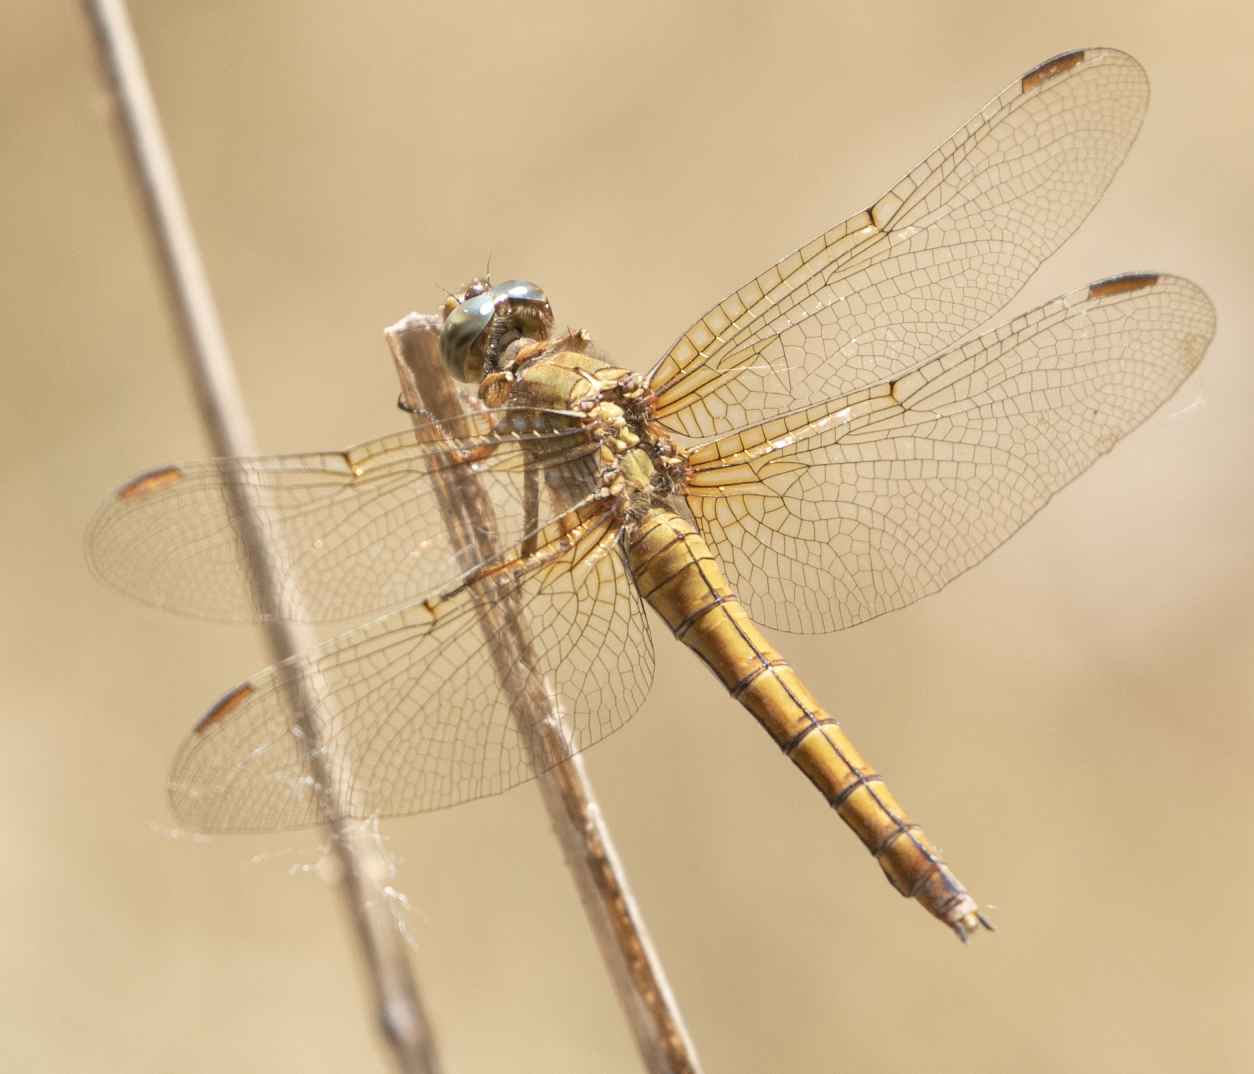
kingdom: Animalia
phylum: Arthropoda
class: Insecta
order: Odonata
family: Libellulidae
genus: Orthetrum
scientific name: Orthetrum coerulescens
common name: Keeled skimmer
